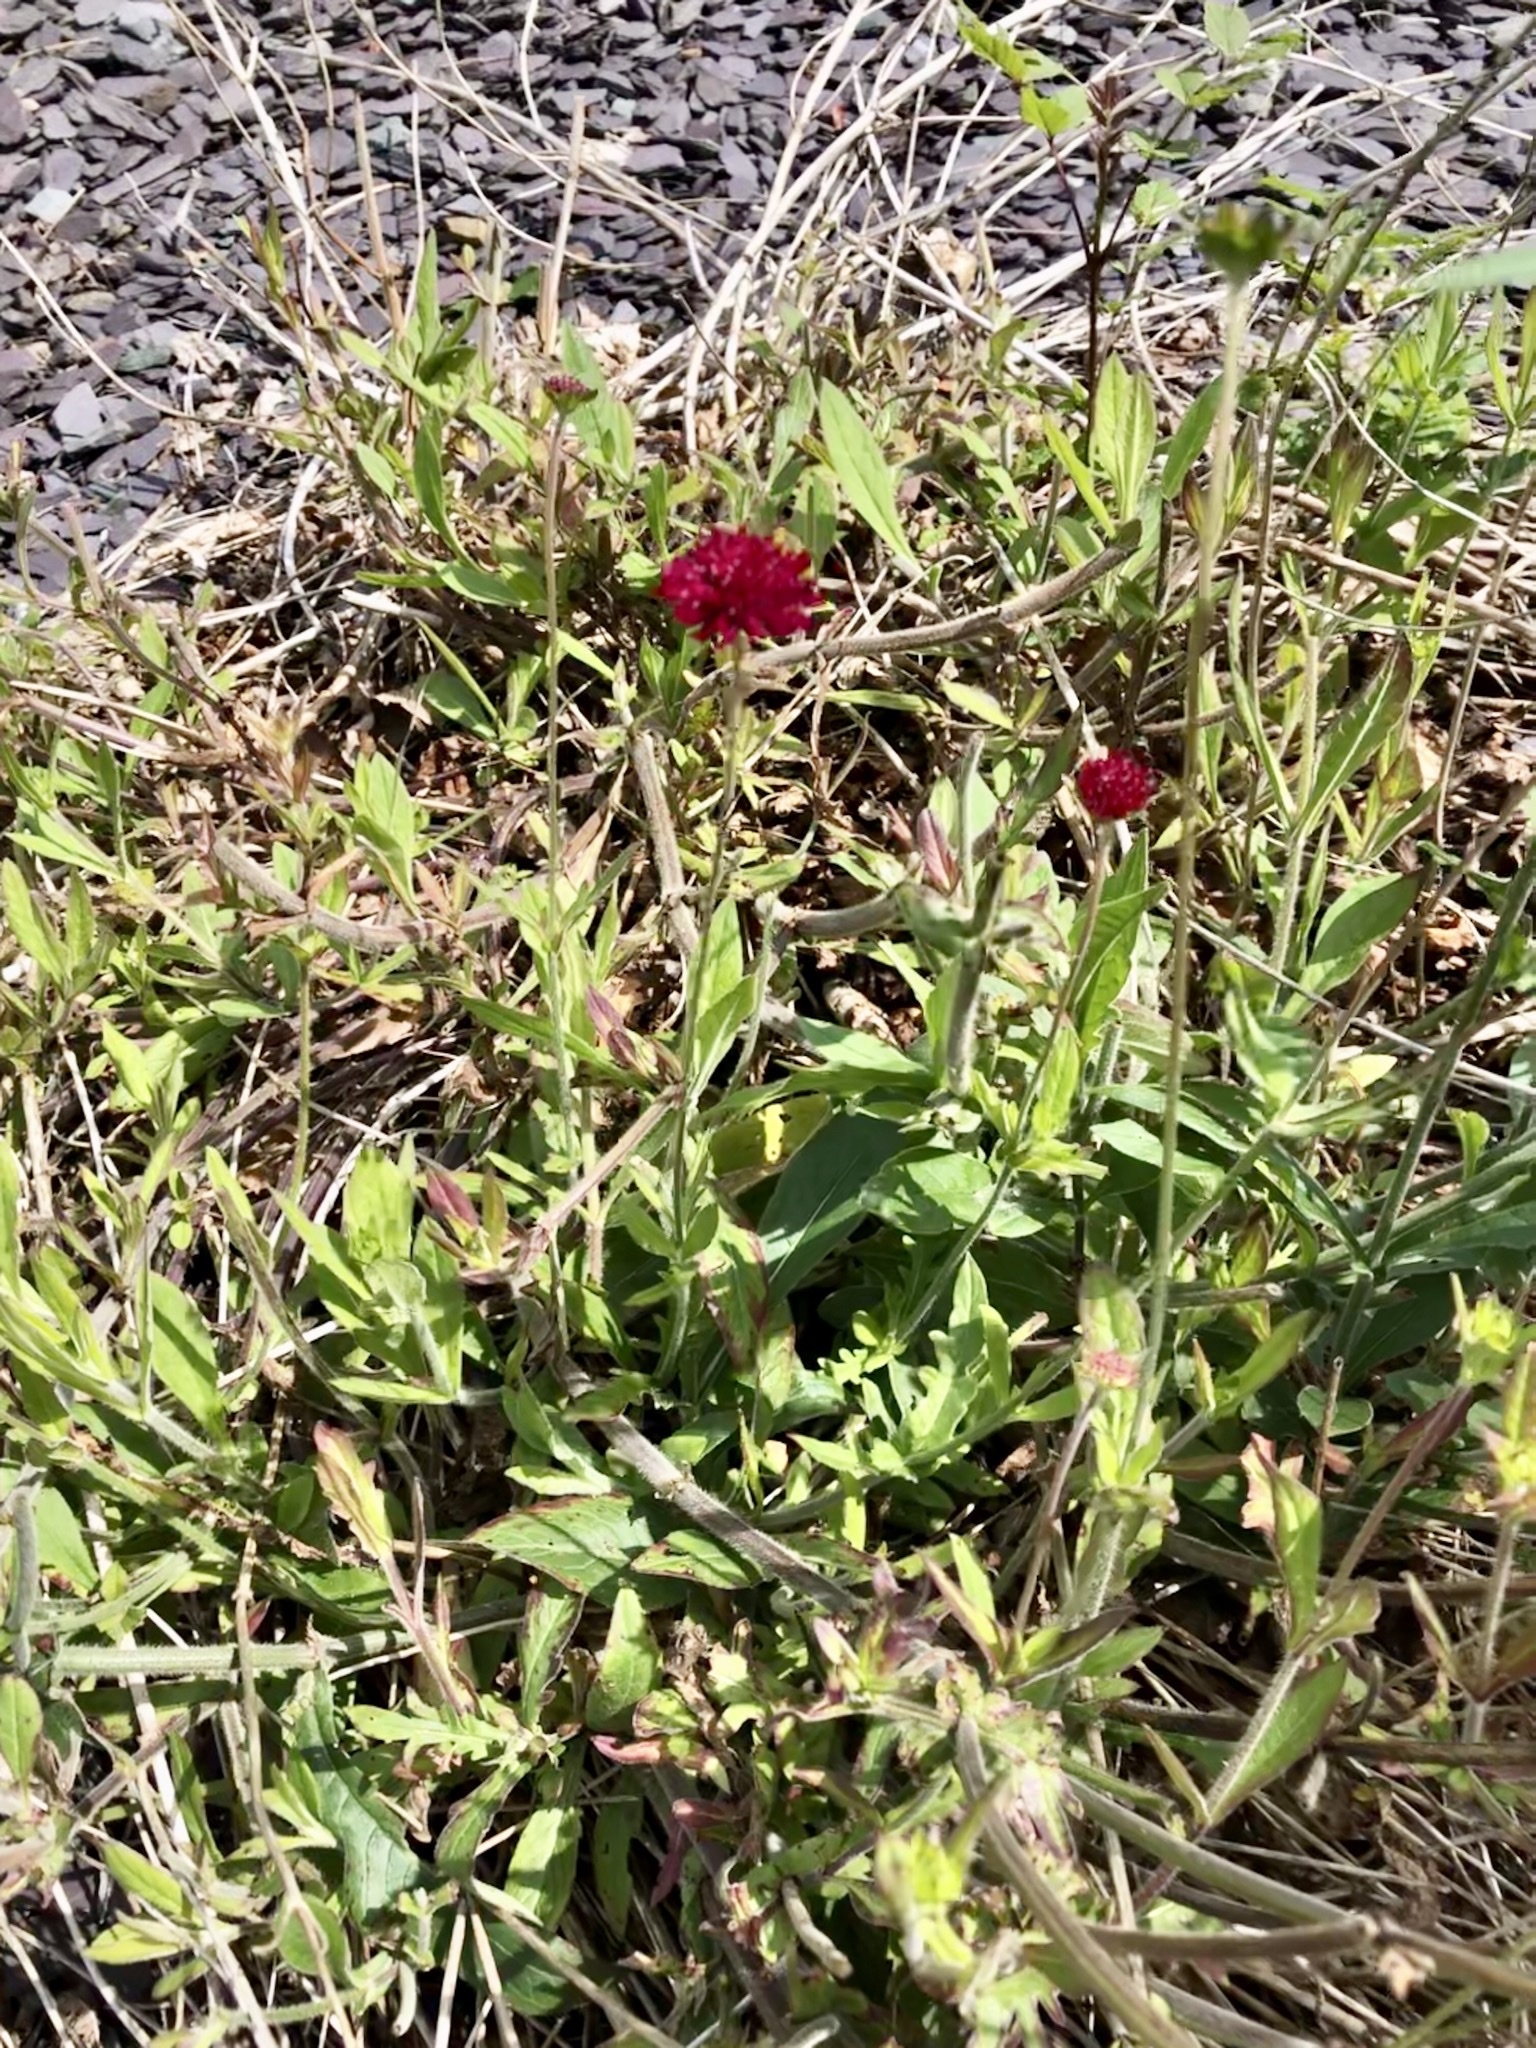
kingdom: Plantae
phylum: Tracheophyta
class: Magnoliopsida
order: Dipsacales
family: Caprifoliaceae
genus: Knautia
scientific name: Knautia macedonica
